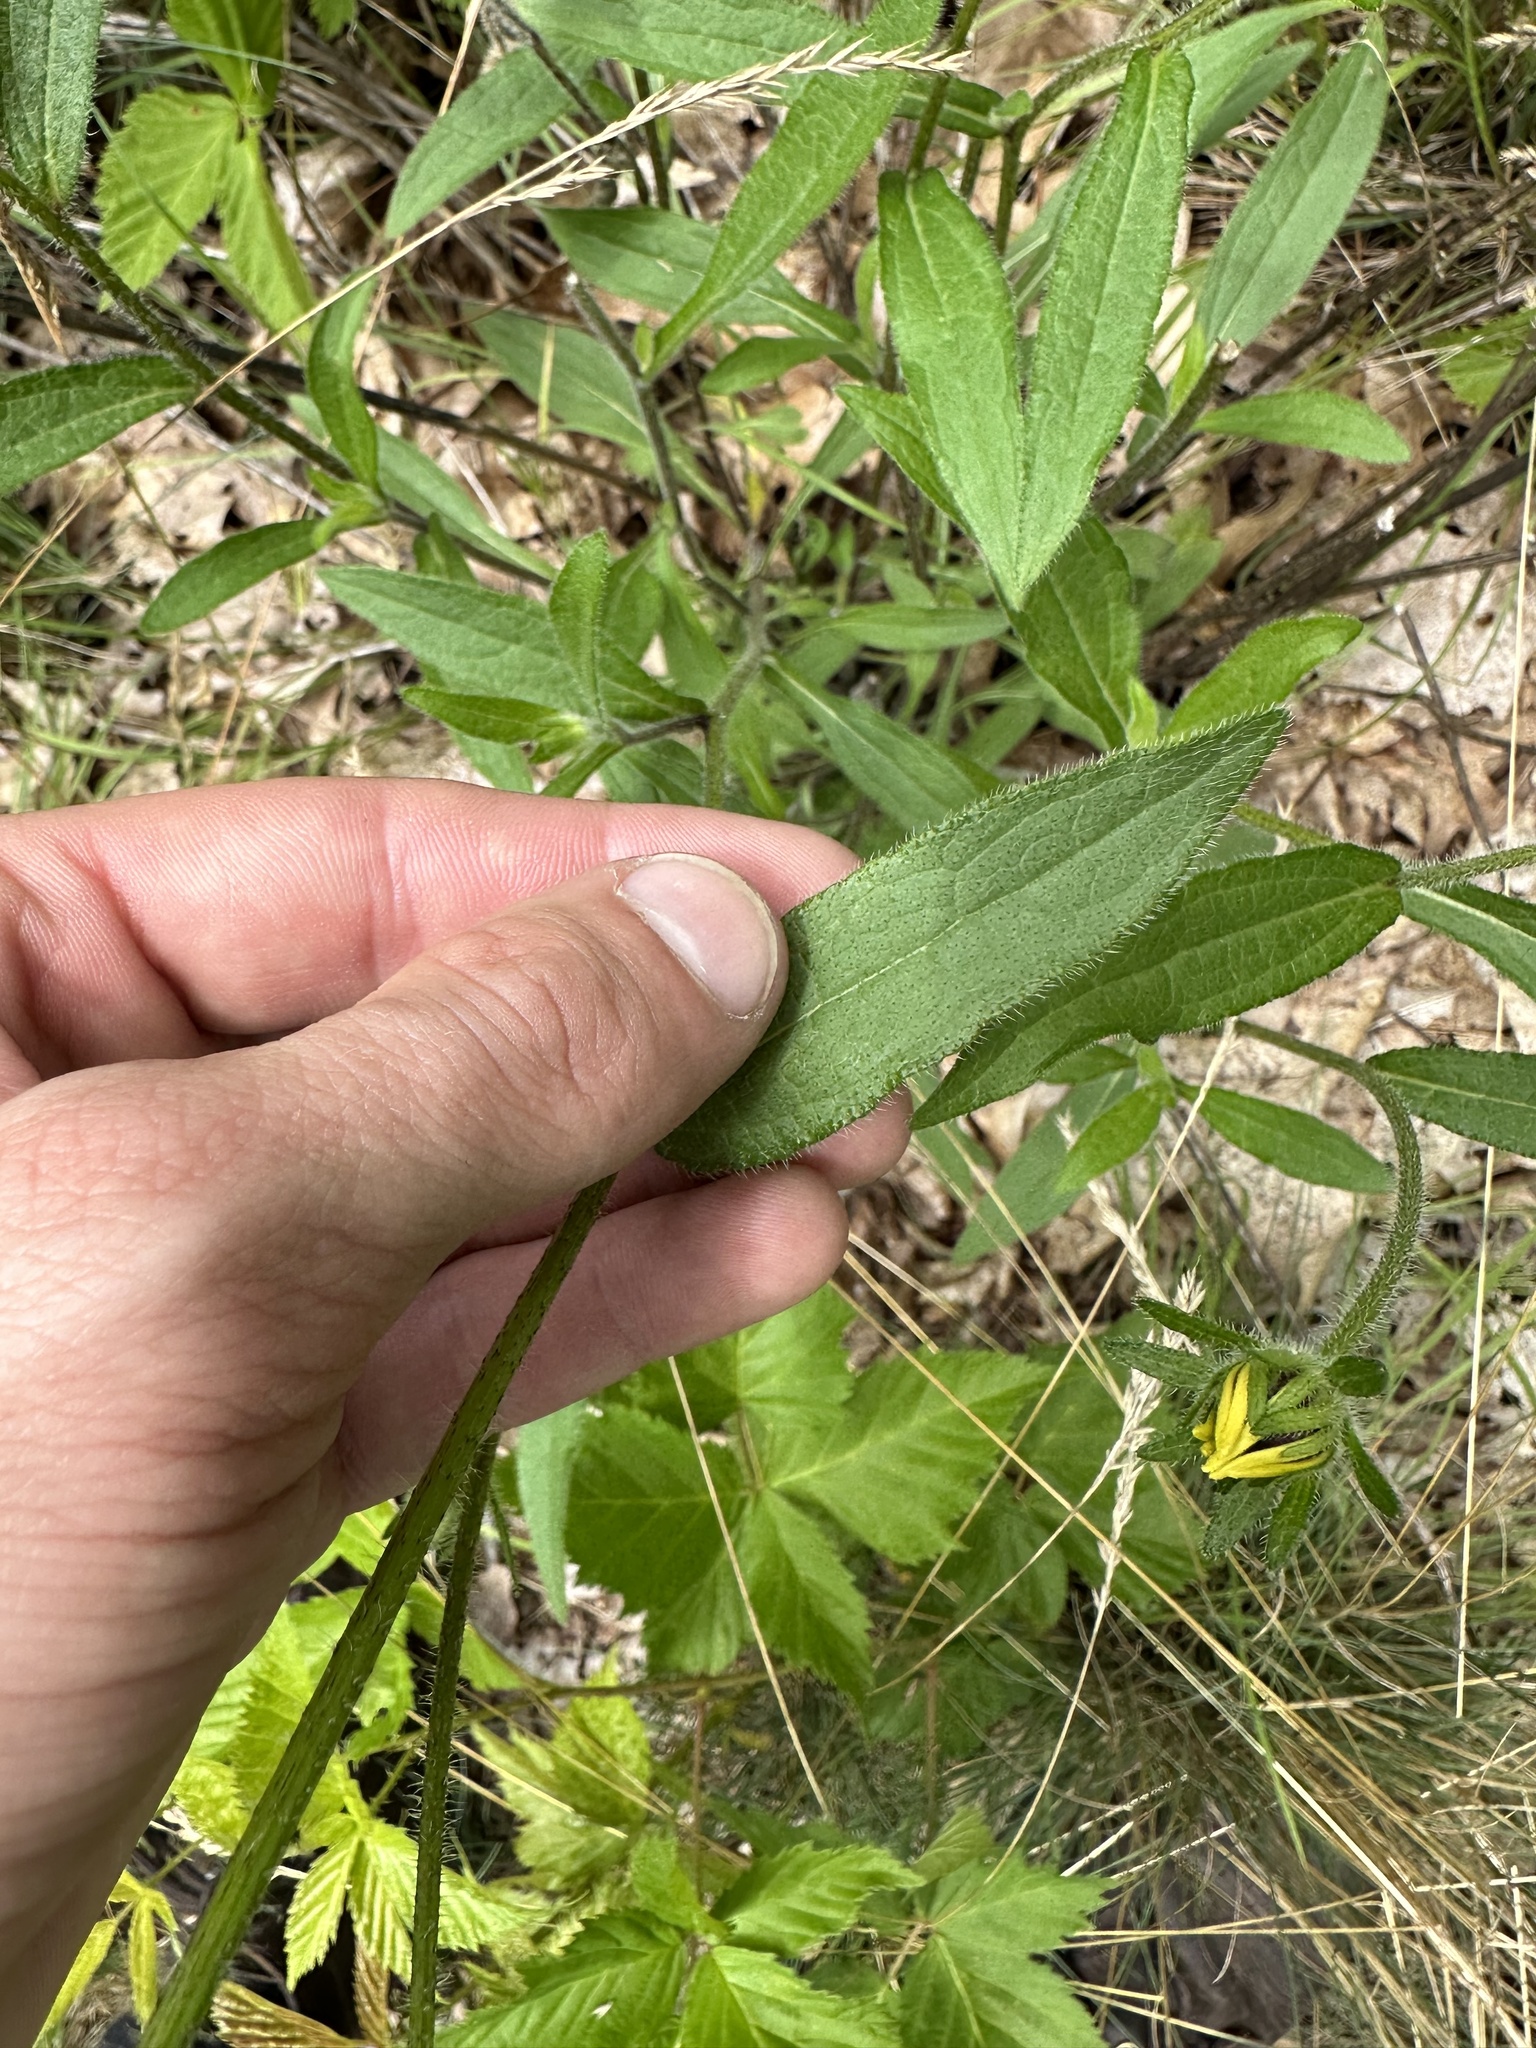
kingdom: Plantae
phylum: Tracheophyta
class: Magnoliopsida
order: Asterales
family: Asteraceae
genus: Rudbeckia
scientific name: Rudbeckia hirta
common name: Black-eyed-susan
